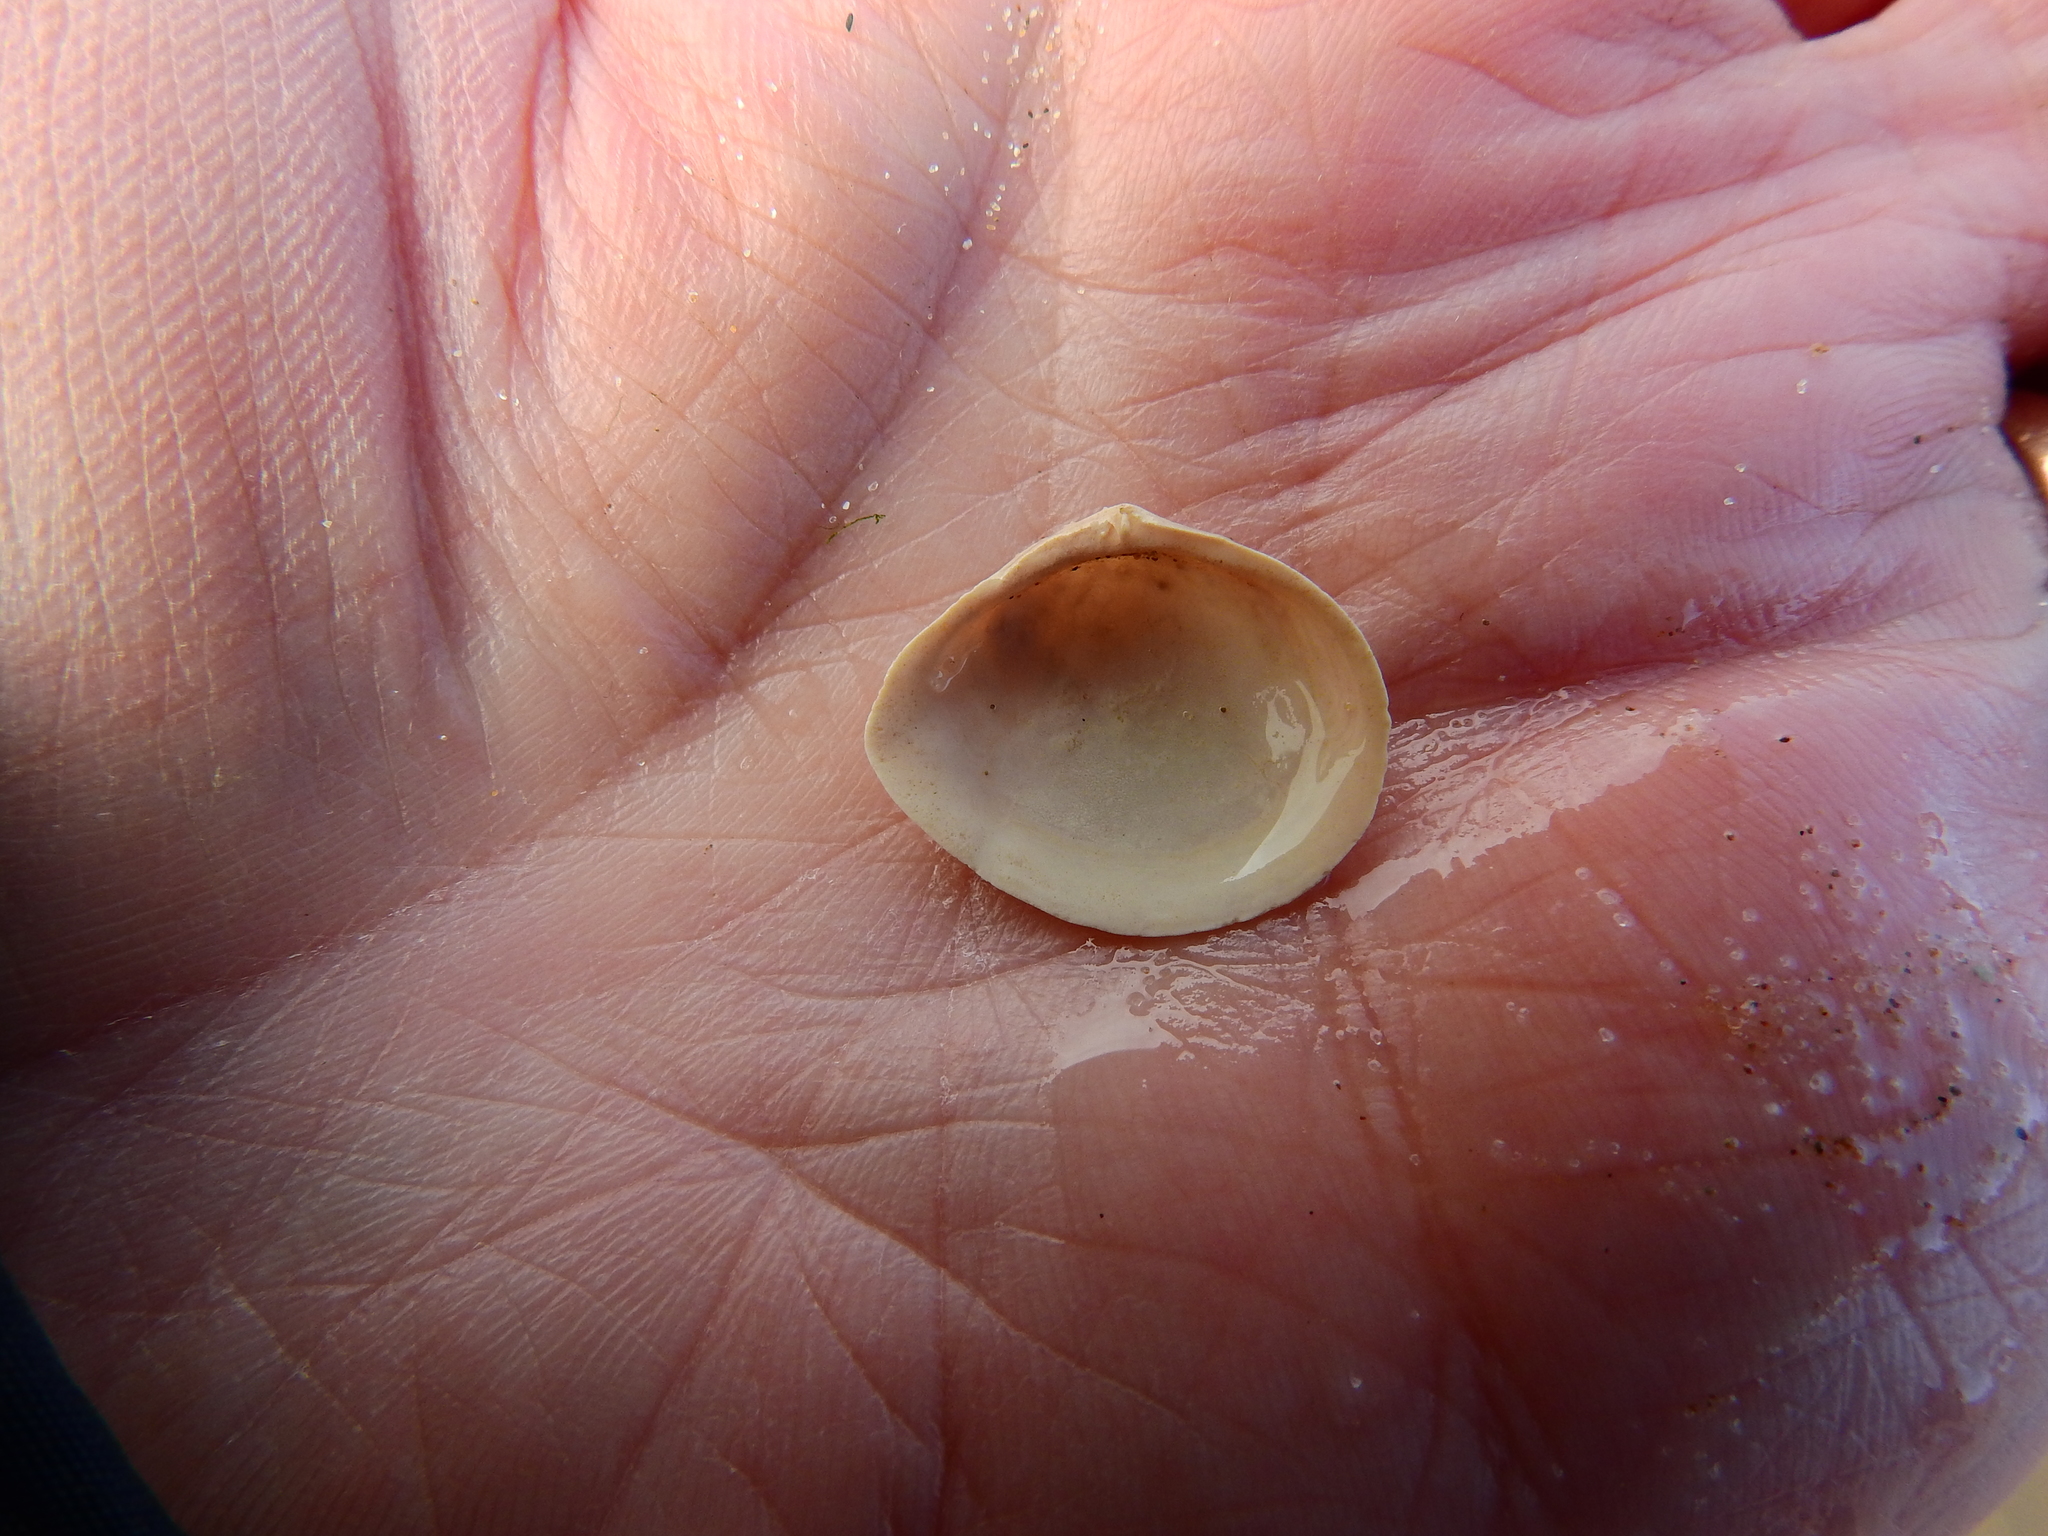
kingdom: Animalia
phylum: Mollusca
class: Bivalvia
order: Cardiida
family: Tellinidae
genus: Macoma
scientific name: Macoma balthica
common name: Baltic tellin
